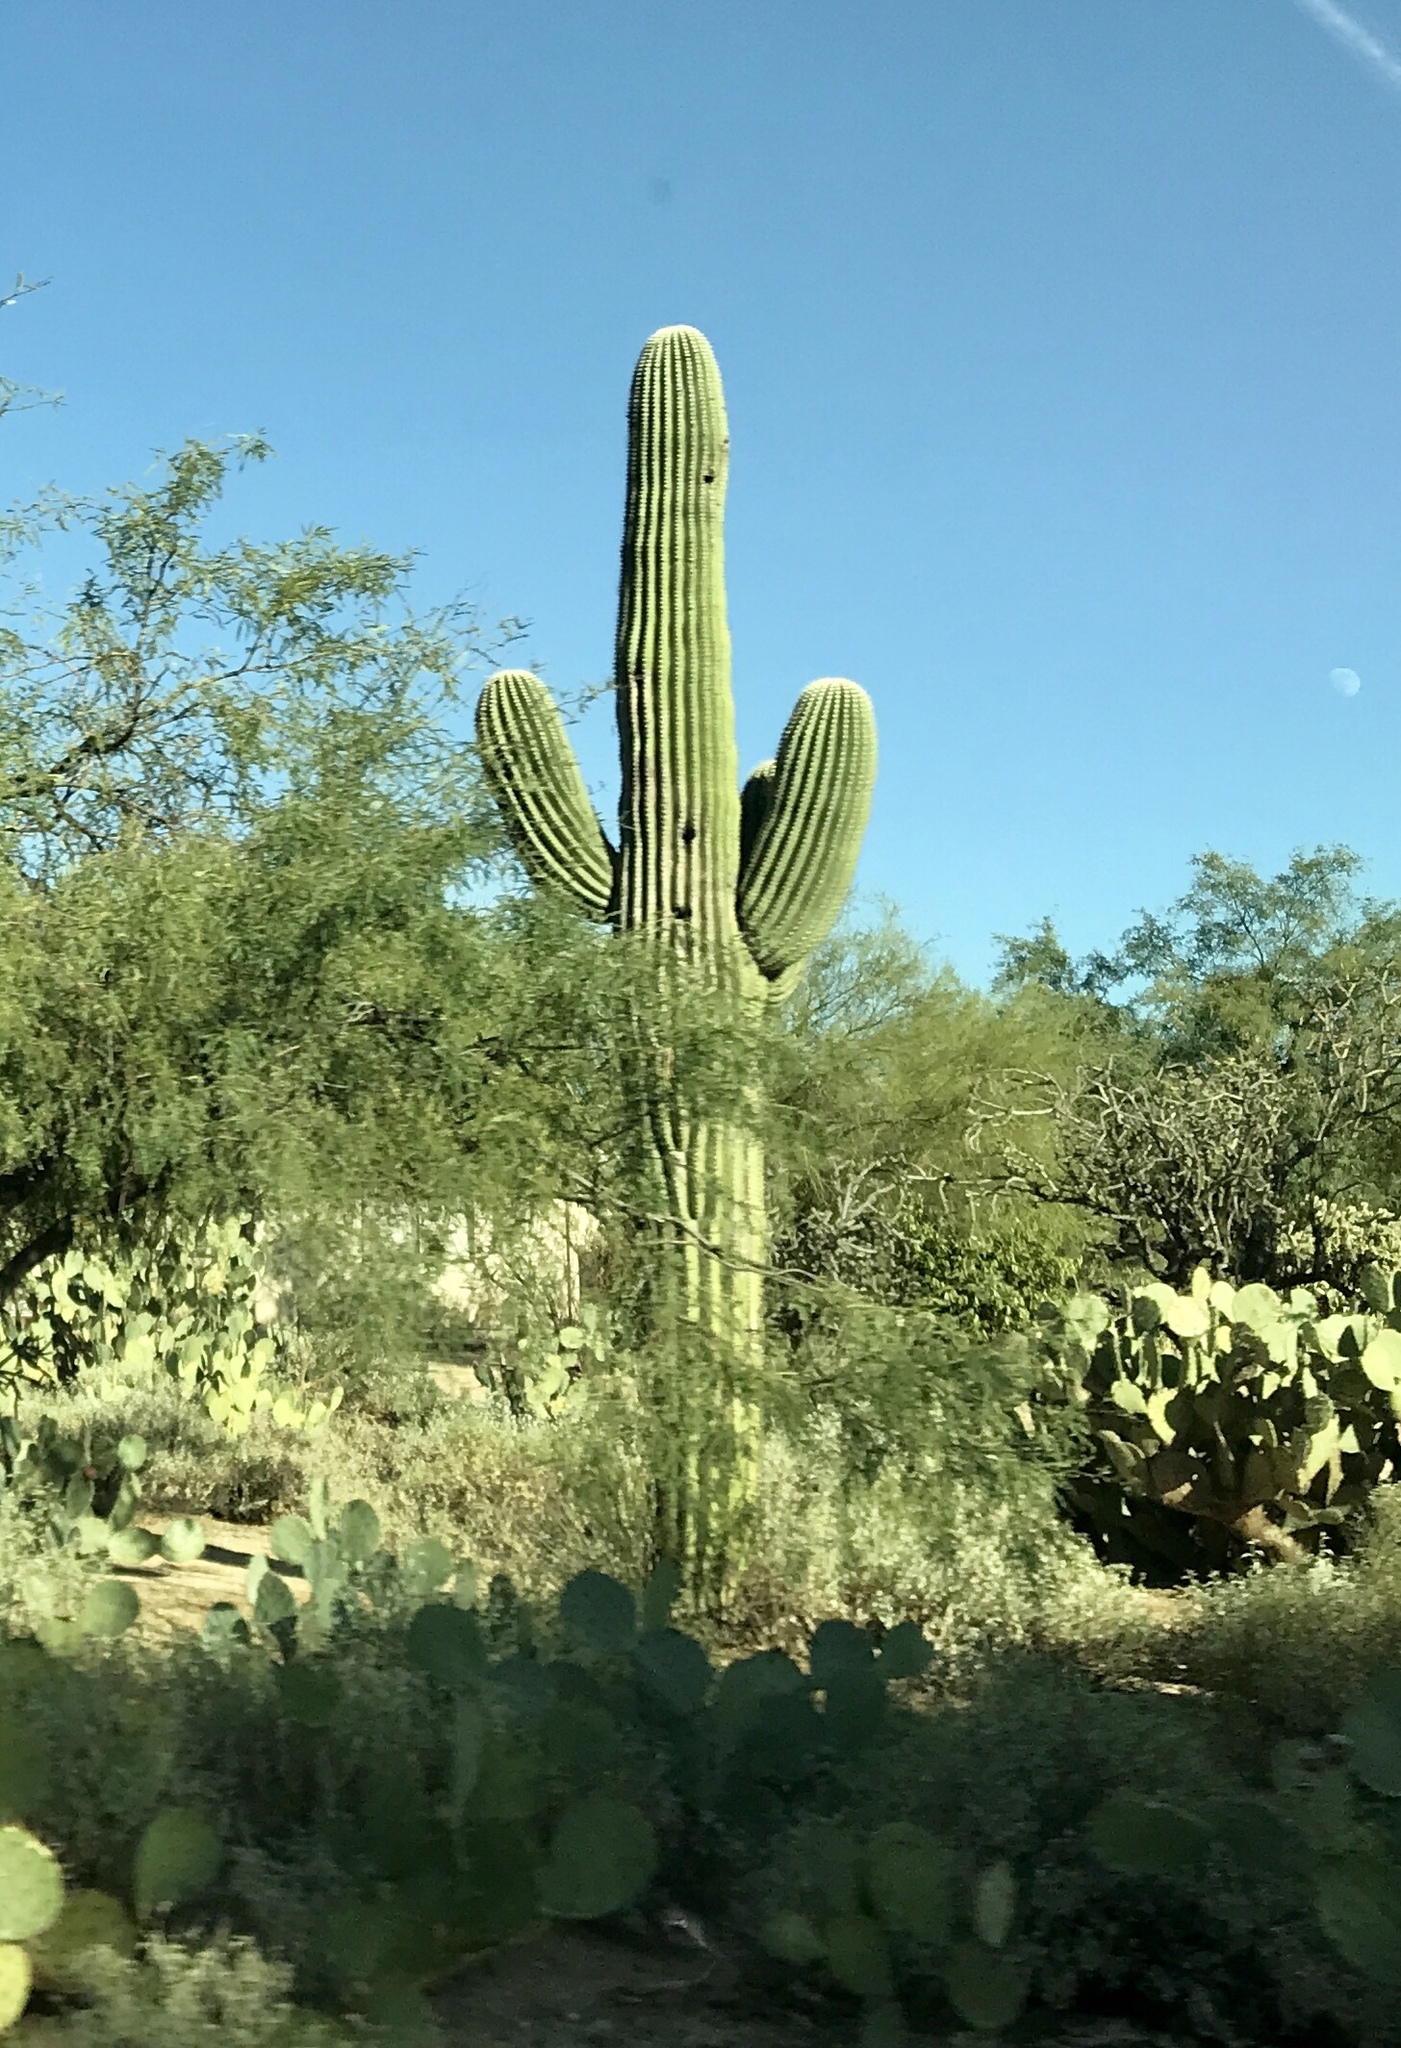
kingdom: Plantae
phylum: Tracheophyta
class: Magnoliopsida
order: Caryophyllales
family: Cactaceae
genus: Carnegiea
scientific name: Carnegiea gigantea
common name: Saguaro
